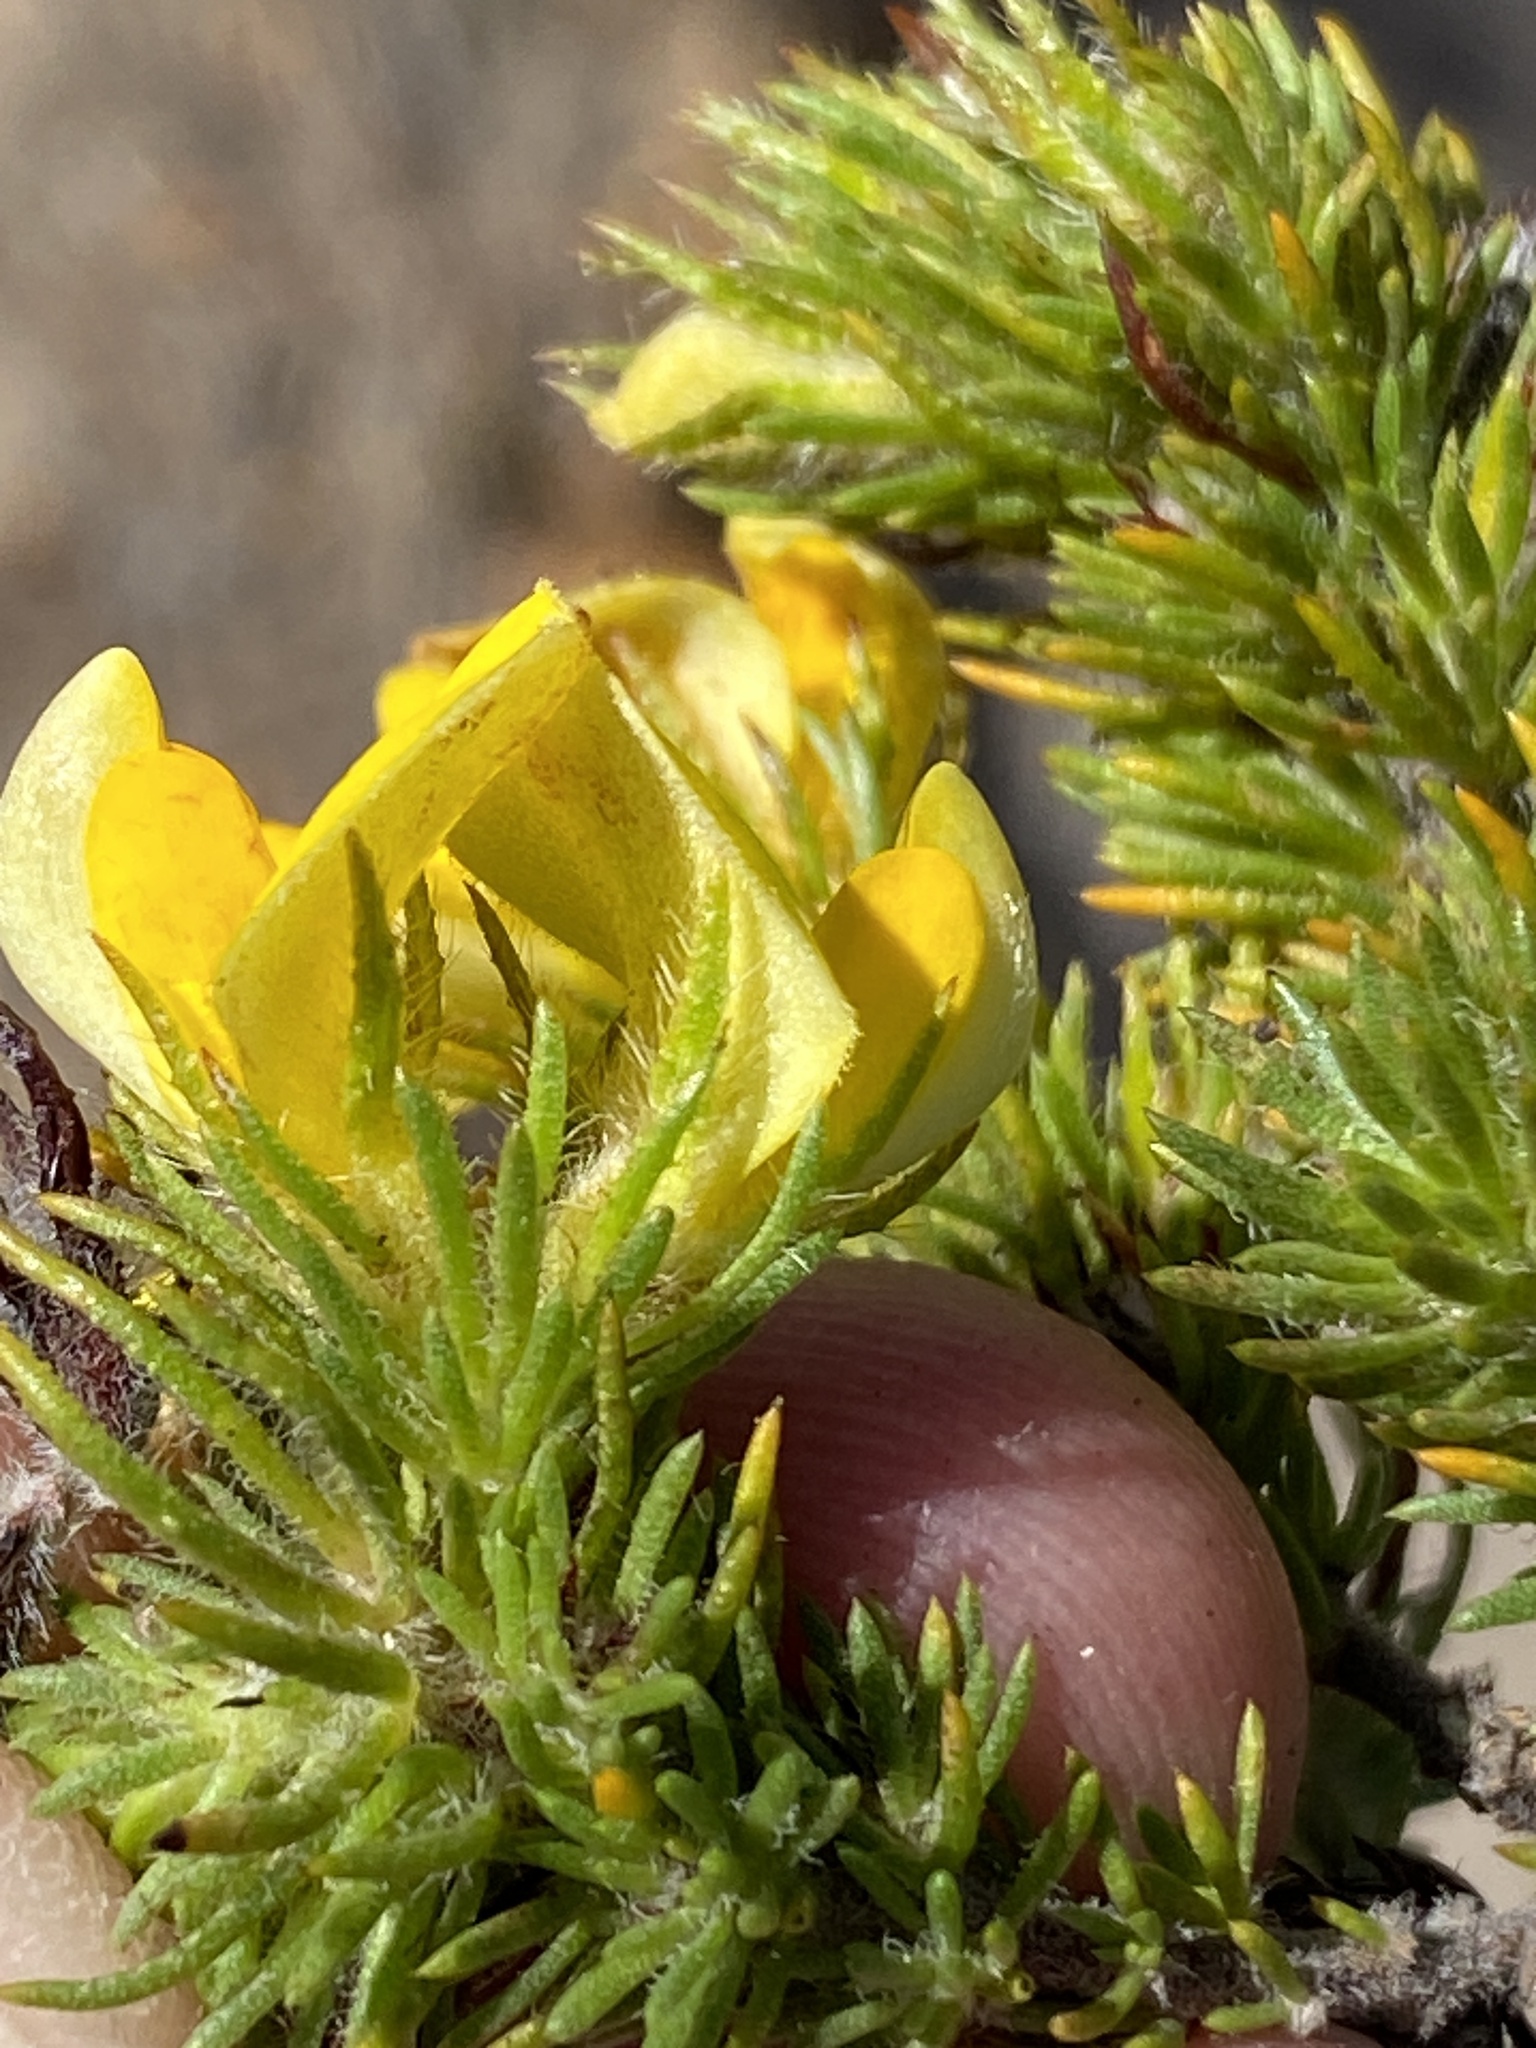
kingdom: Plantae
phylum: Tracheophyta
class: Magnoliopsida
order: Fabales
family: Fabaceae
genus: Aspalathus
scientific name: Aspalathus ciliaris
